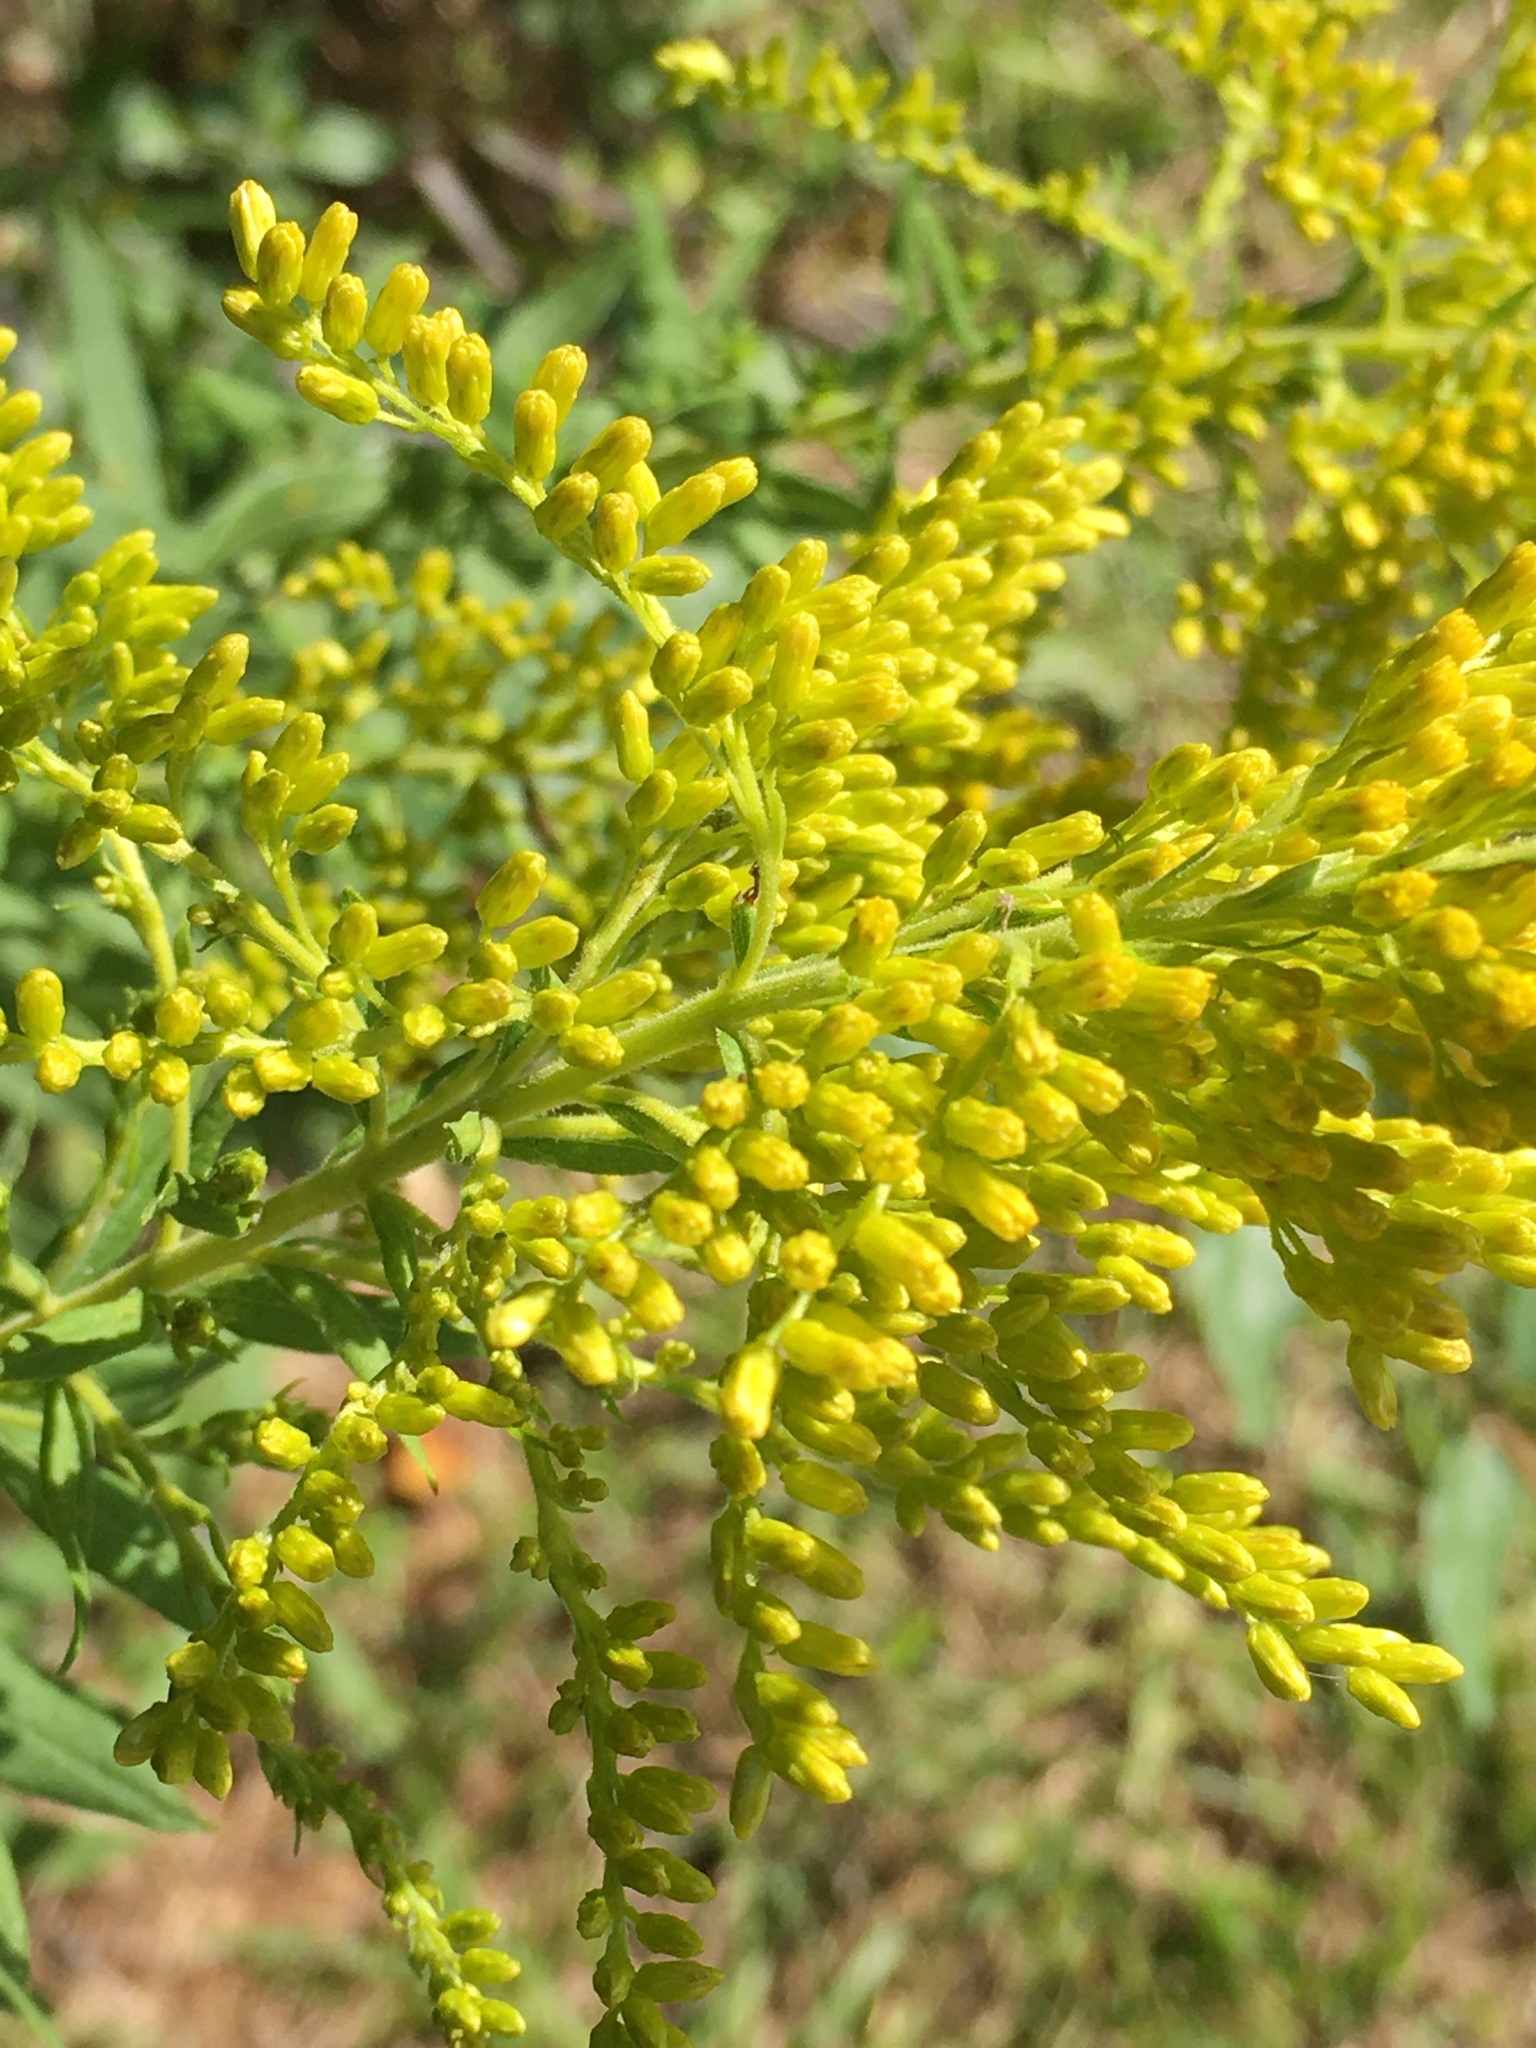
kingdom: Plantae
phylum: Tracheophyta
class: Magnoliopsida
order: Asterales
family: Asteraceae
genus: Solidago
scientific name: Solidago altissima
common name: Late goldenrod
